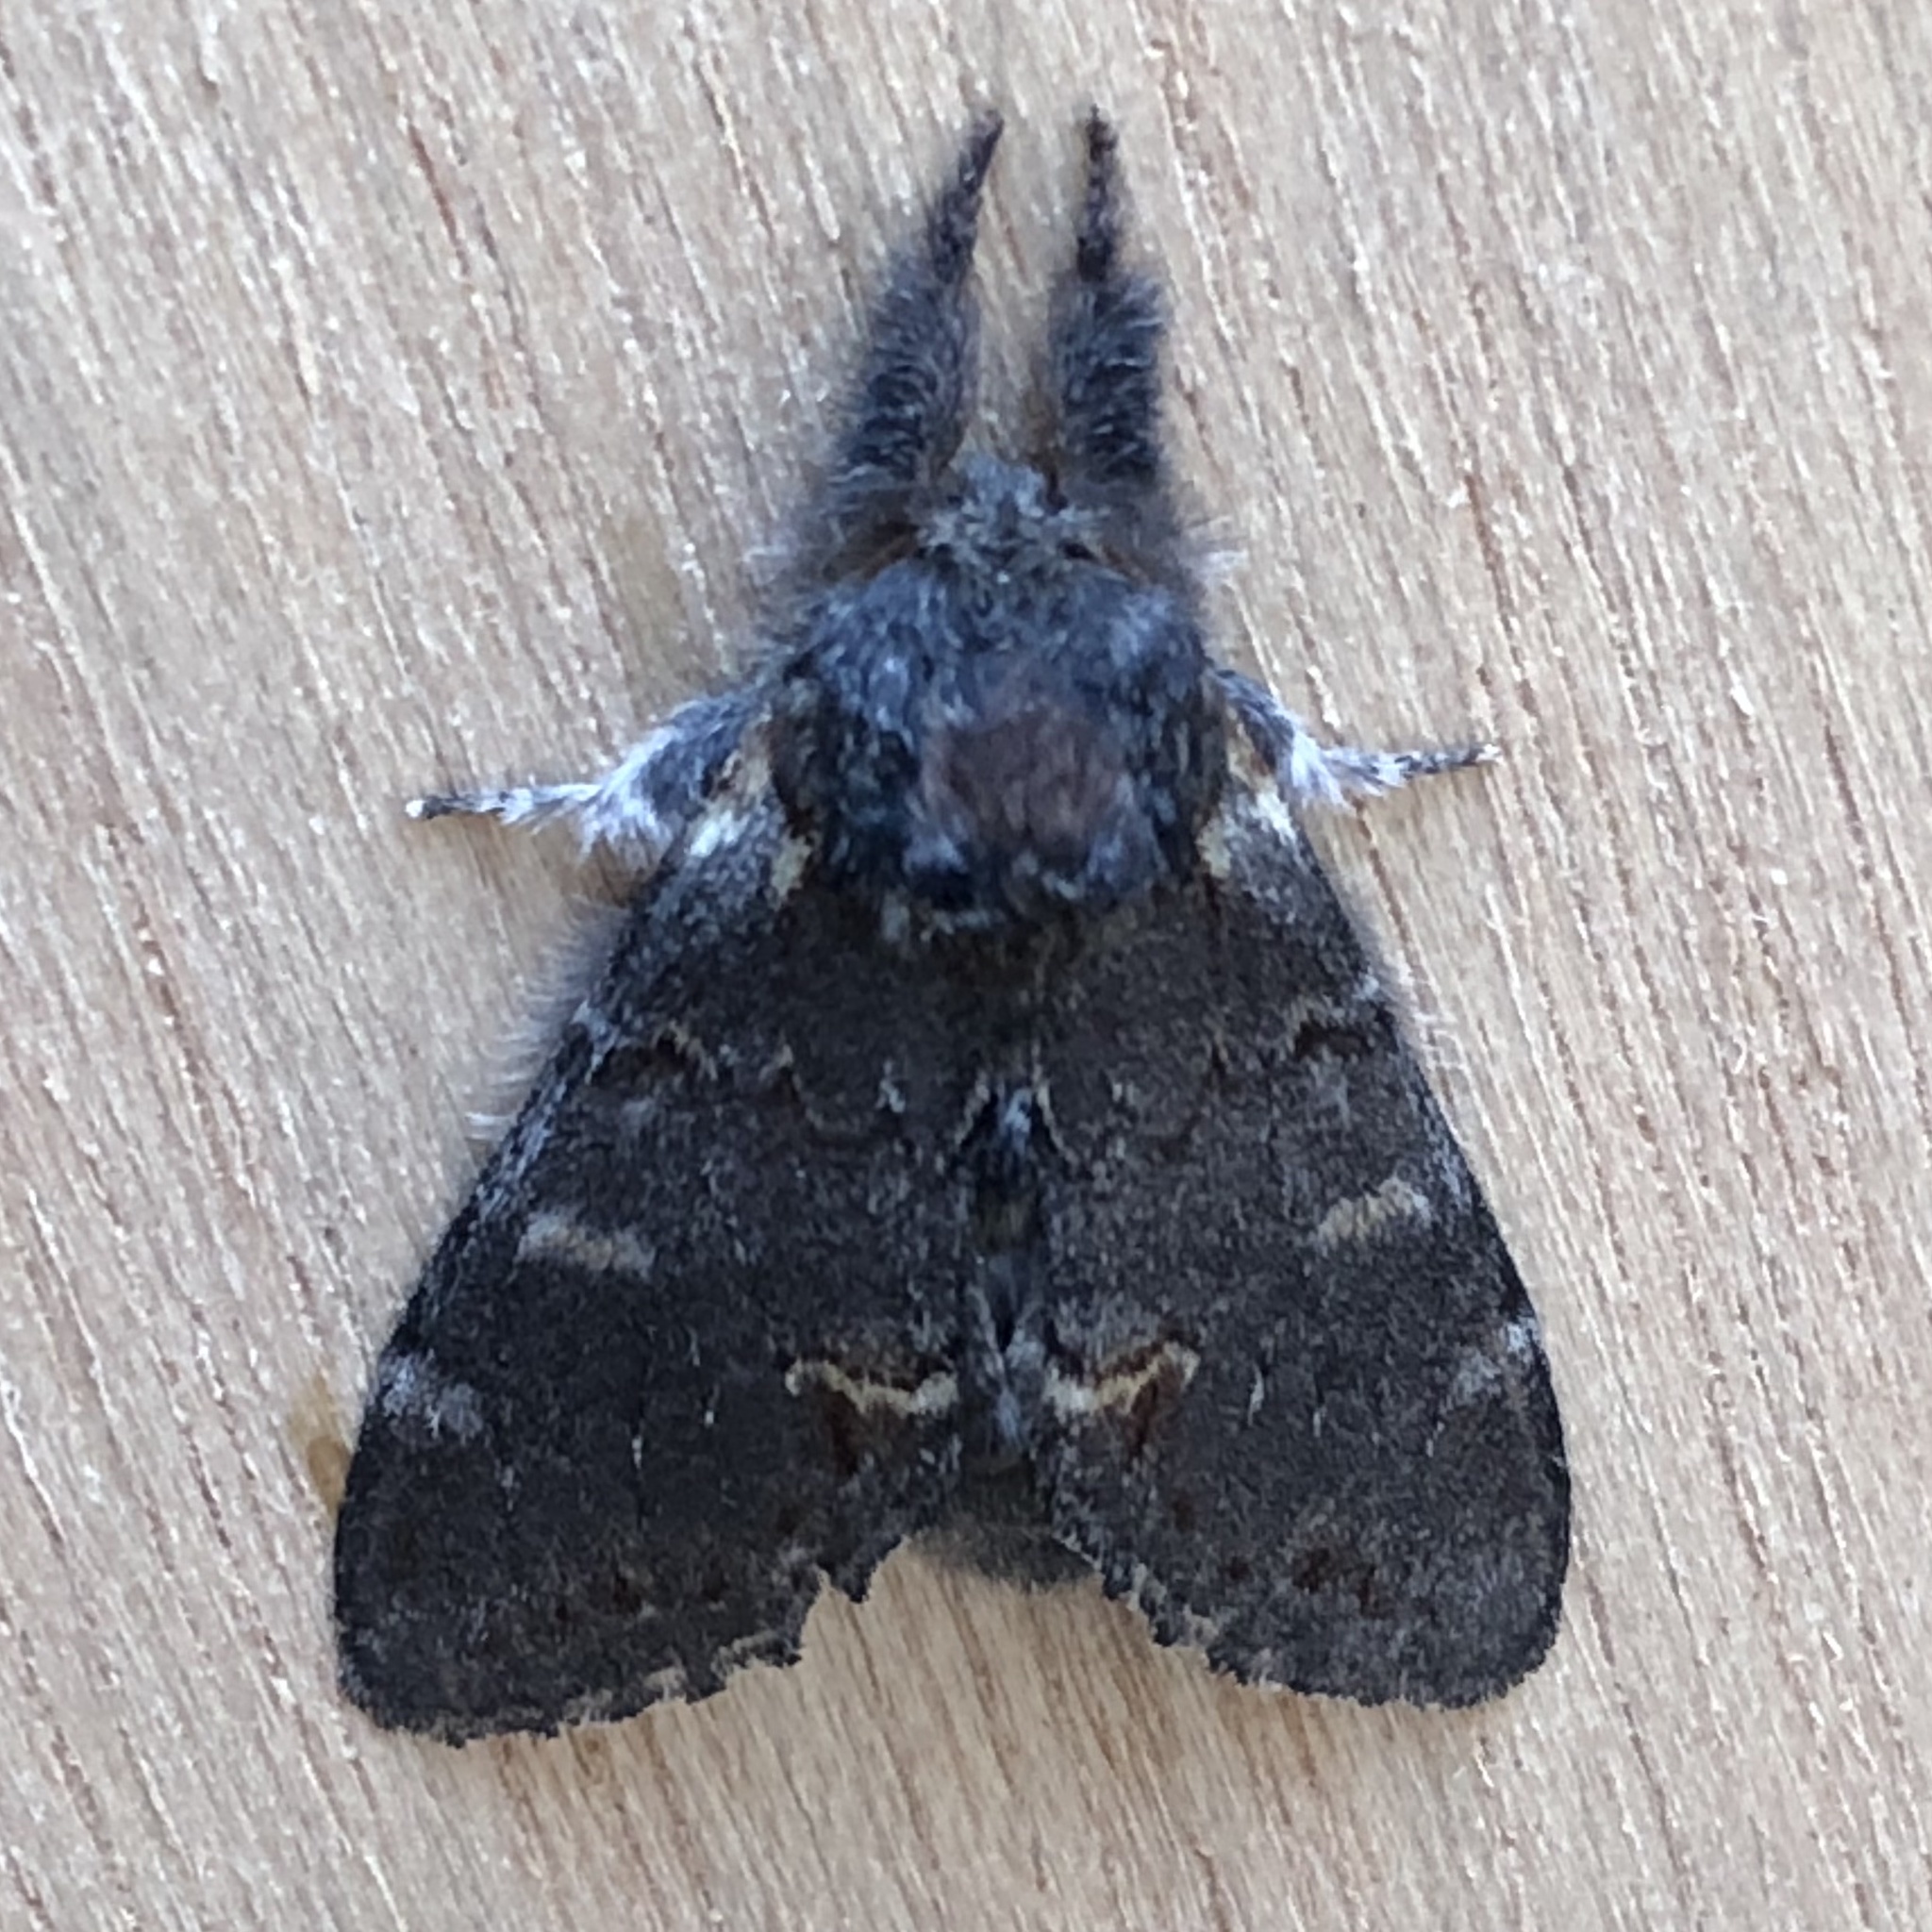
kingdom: Animalia
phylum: Arthropoda
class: Insecta
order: Lepidoptera
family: Notodontidae
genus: Notodonta
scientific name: Notodonta dromedarius
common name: Iron prominent
